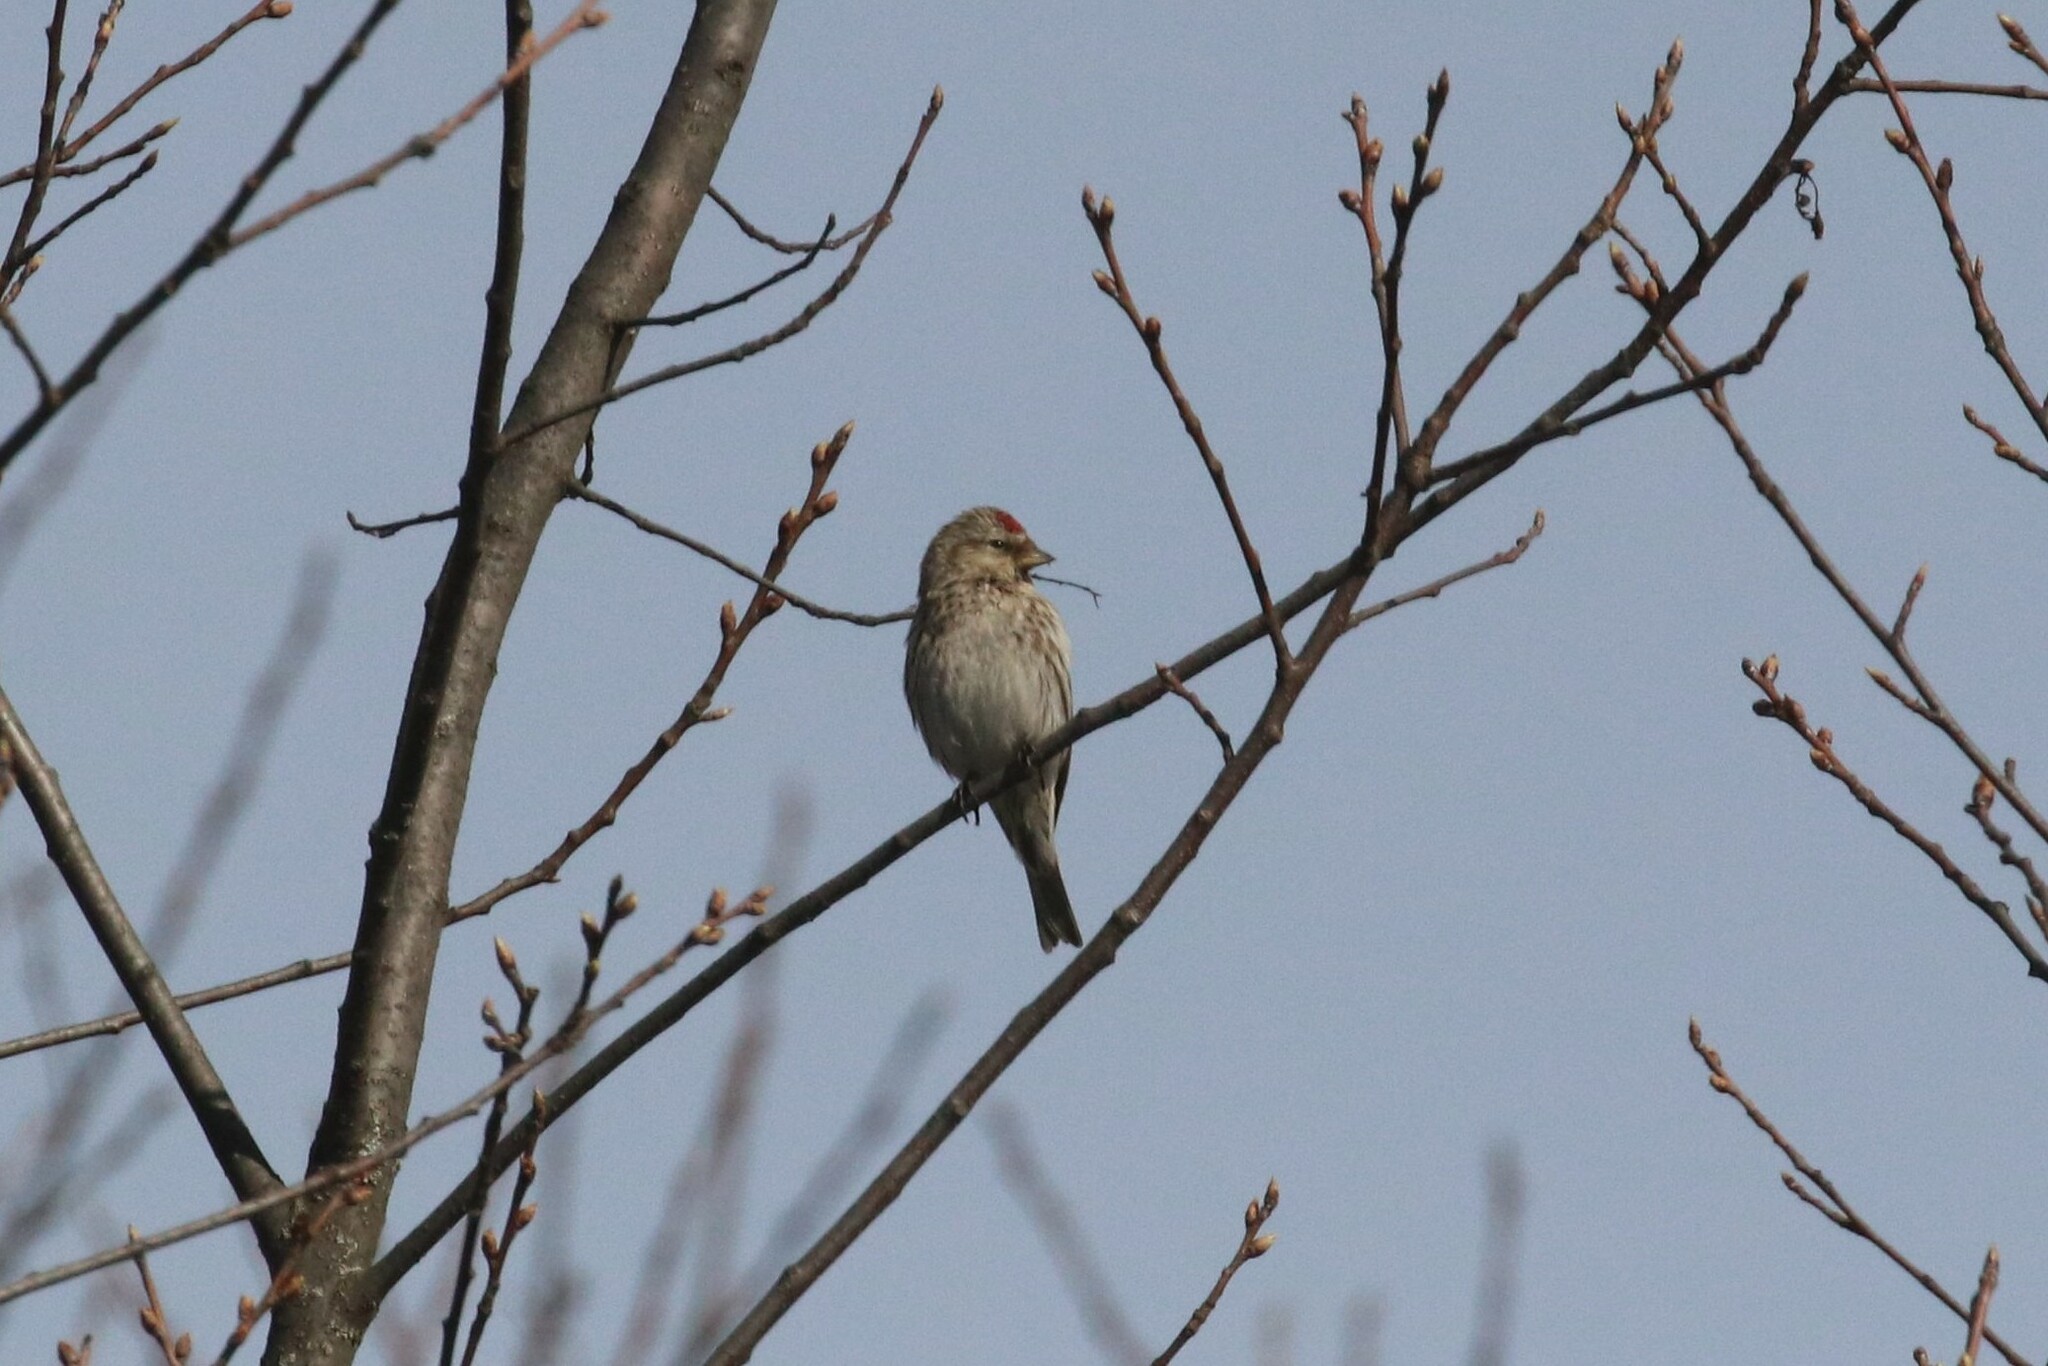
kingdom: Animalia
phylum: Chordata
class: Aves
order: Passeriformes
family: Fringillidae
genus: Acanthis
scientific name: Acanthis flammea
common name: Common redpoll
